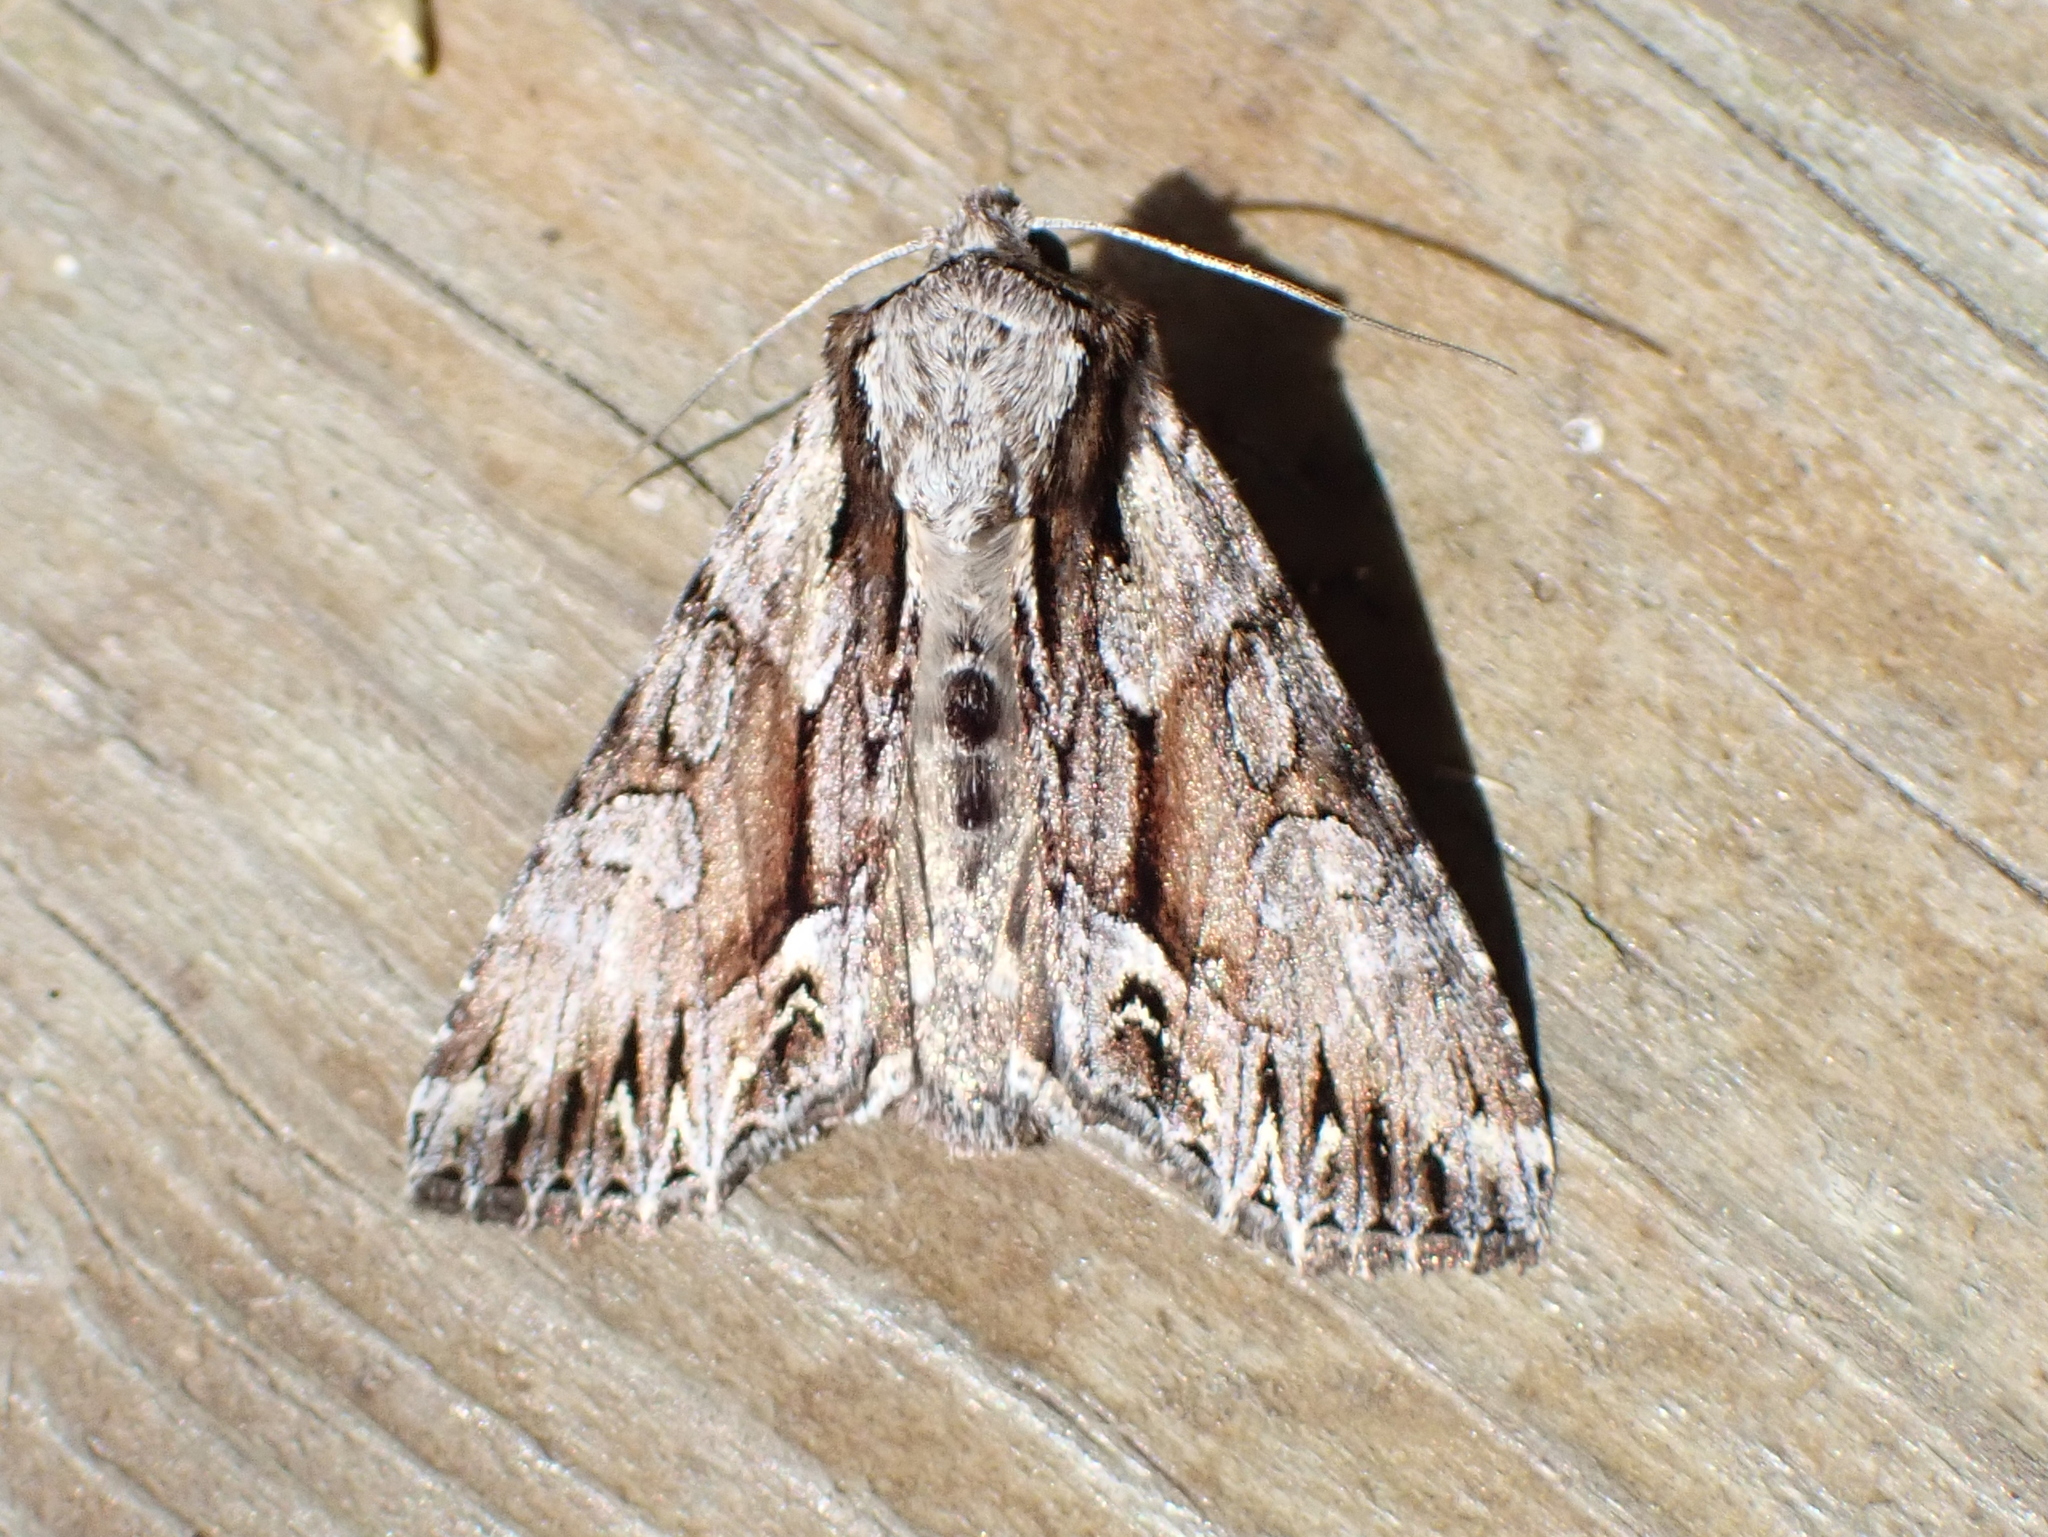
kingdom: Animalia
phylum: Arthropoda
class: Insecta
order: Lepidoptera
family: Noctuidae
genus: Hyppa
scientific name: Hyppa xylinoides
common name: Common hyppa moth
